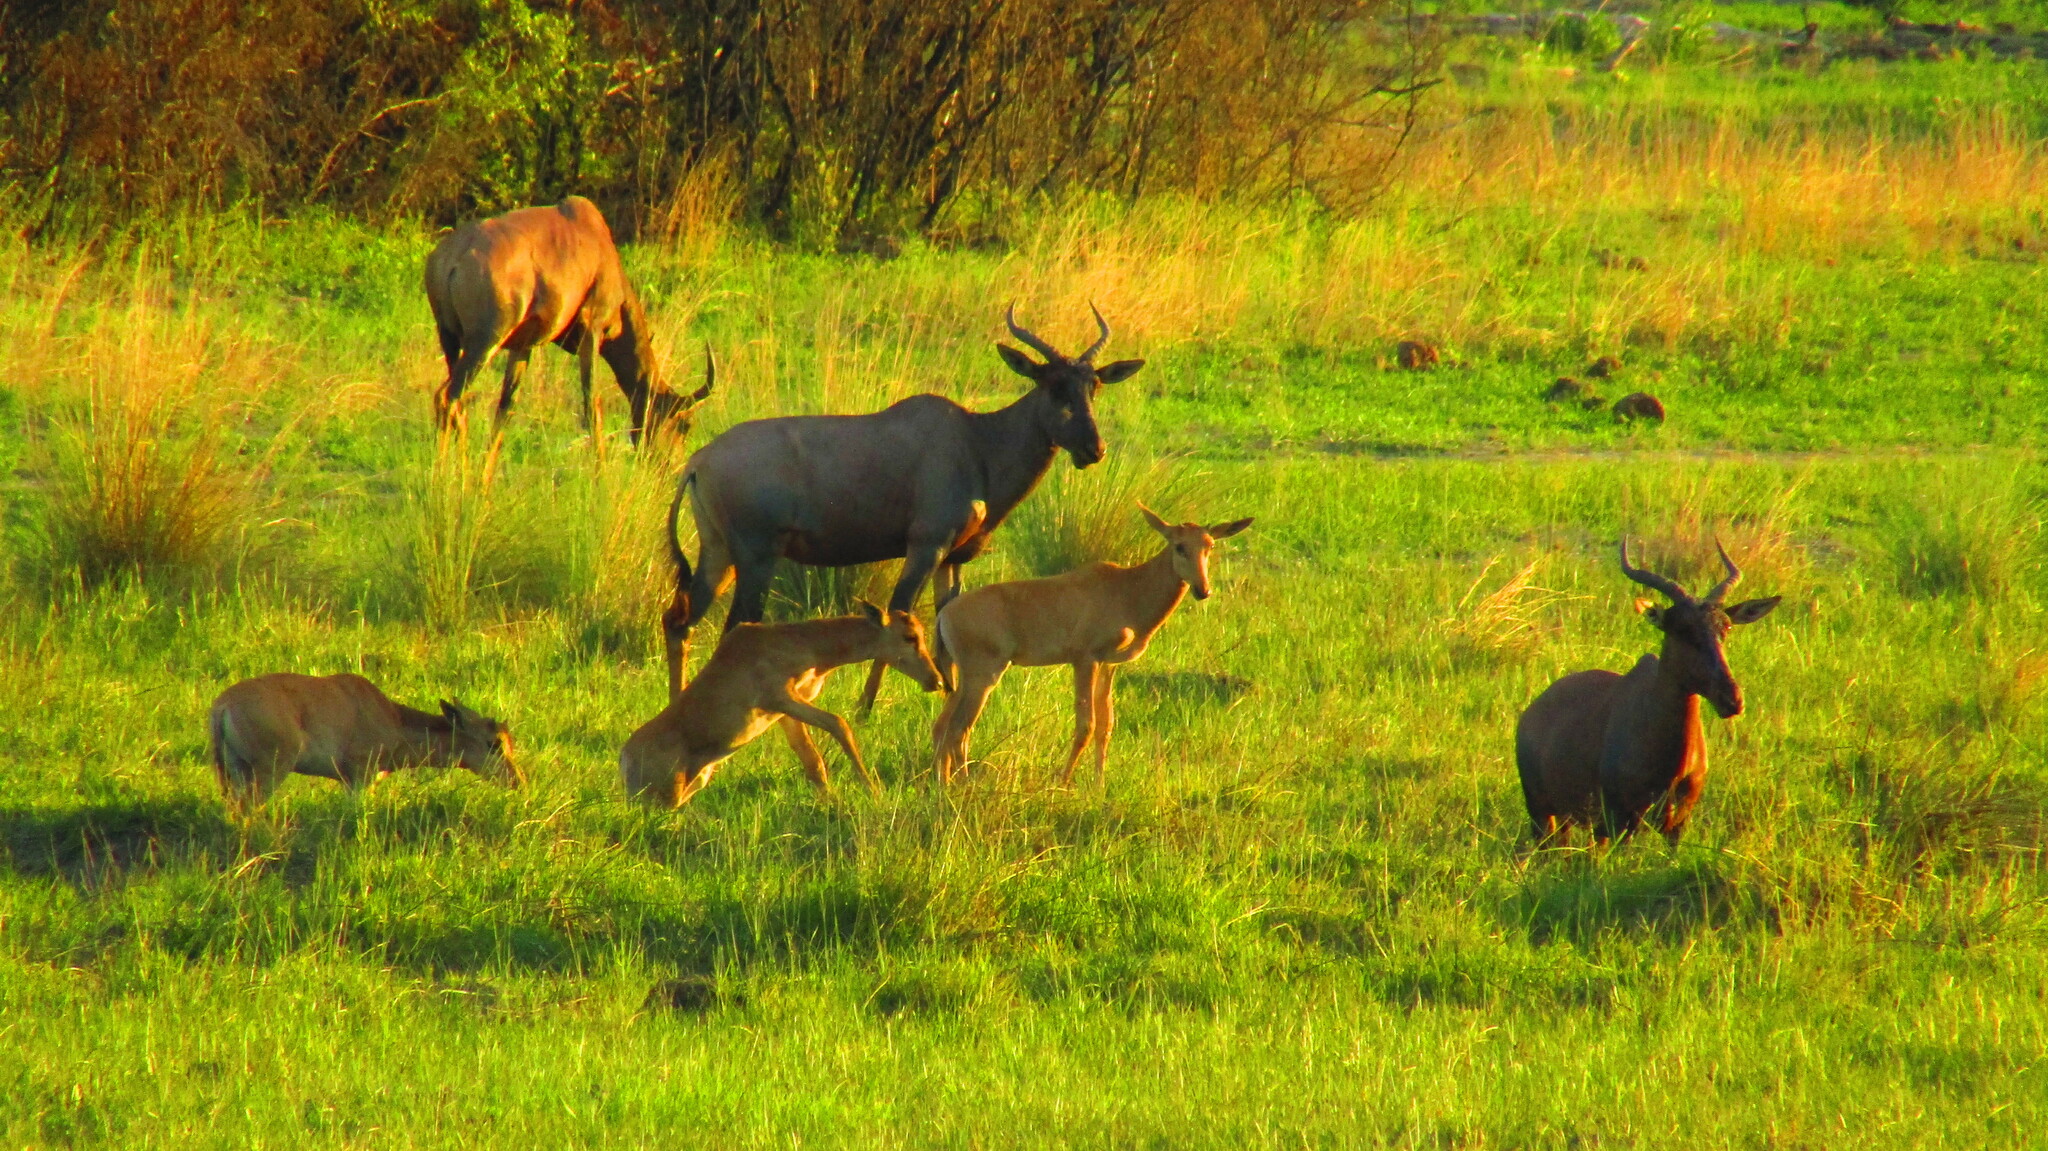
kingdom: Animalia
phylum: Chordata
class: Mammalia
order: Artiodactyla
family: Bovidae
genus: Damaliscus
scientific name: Damaliscus lunatus
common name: Common tsessebe
